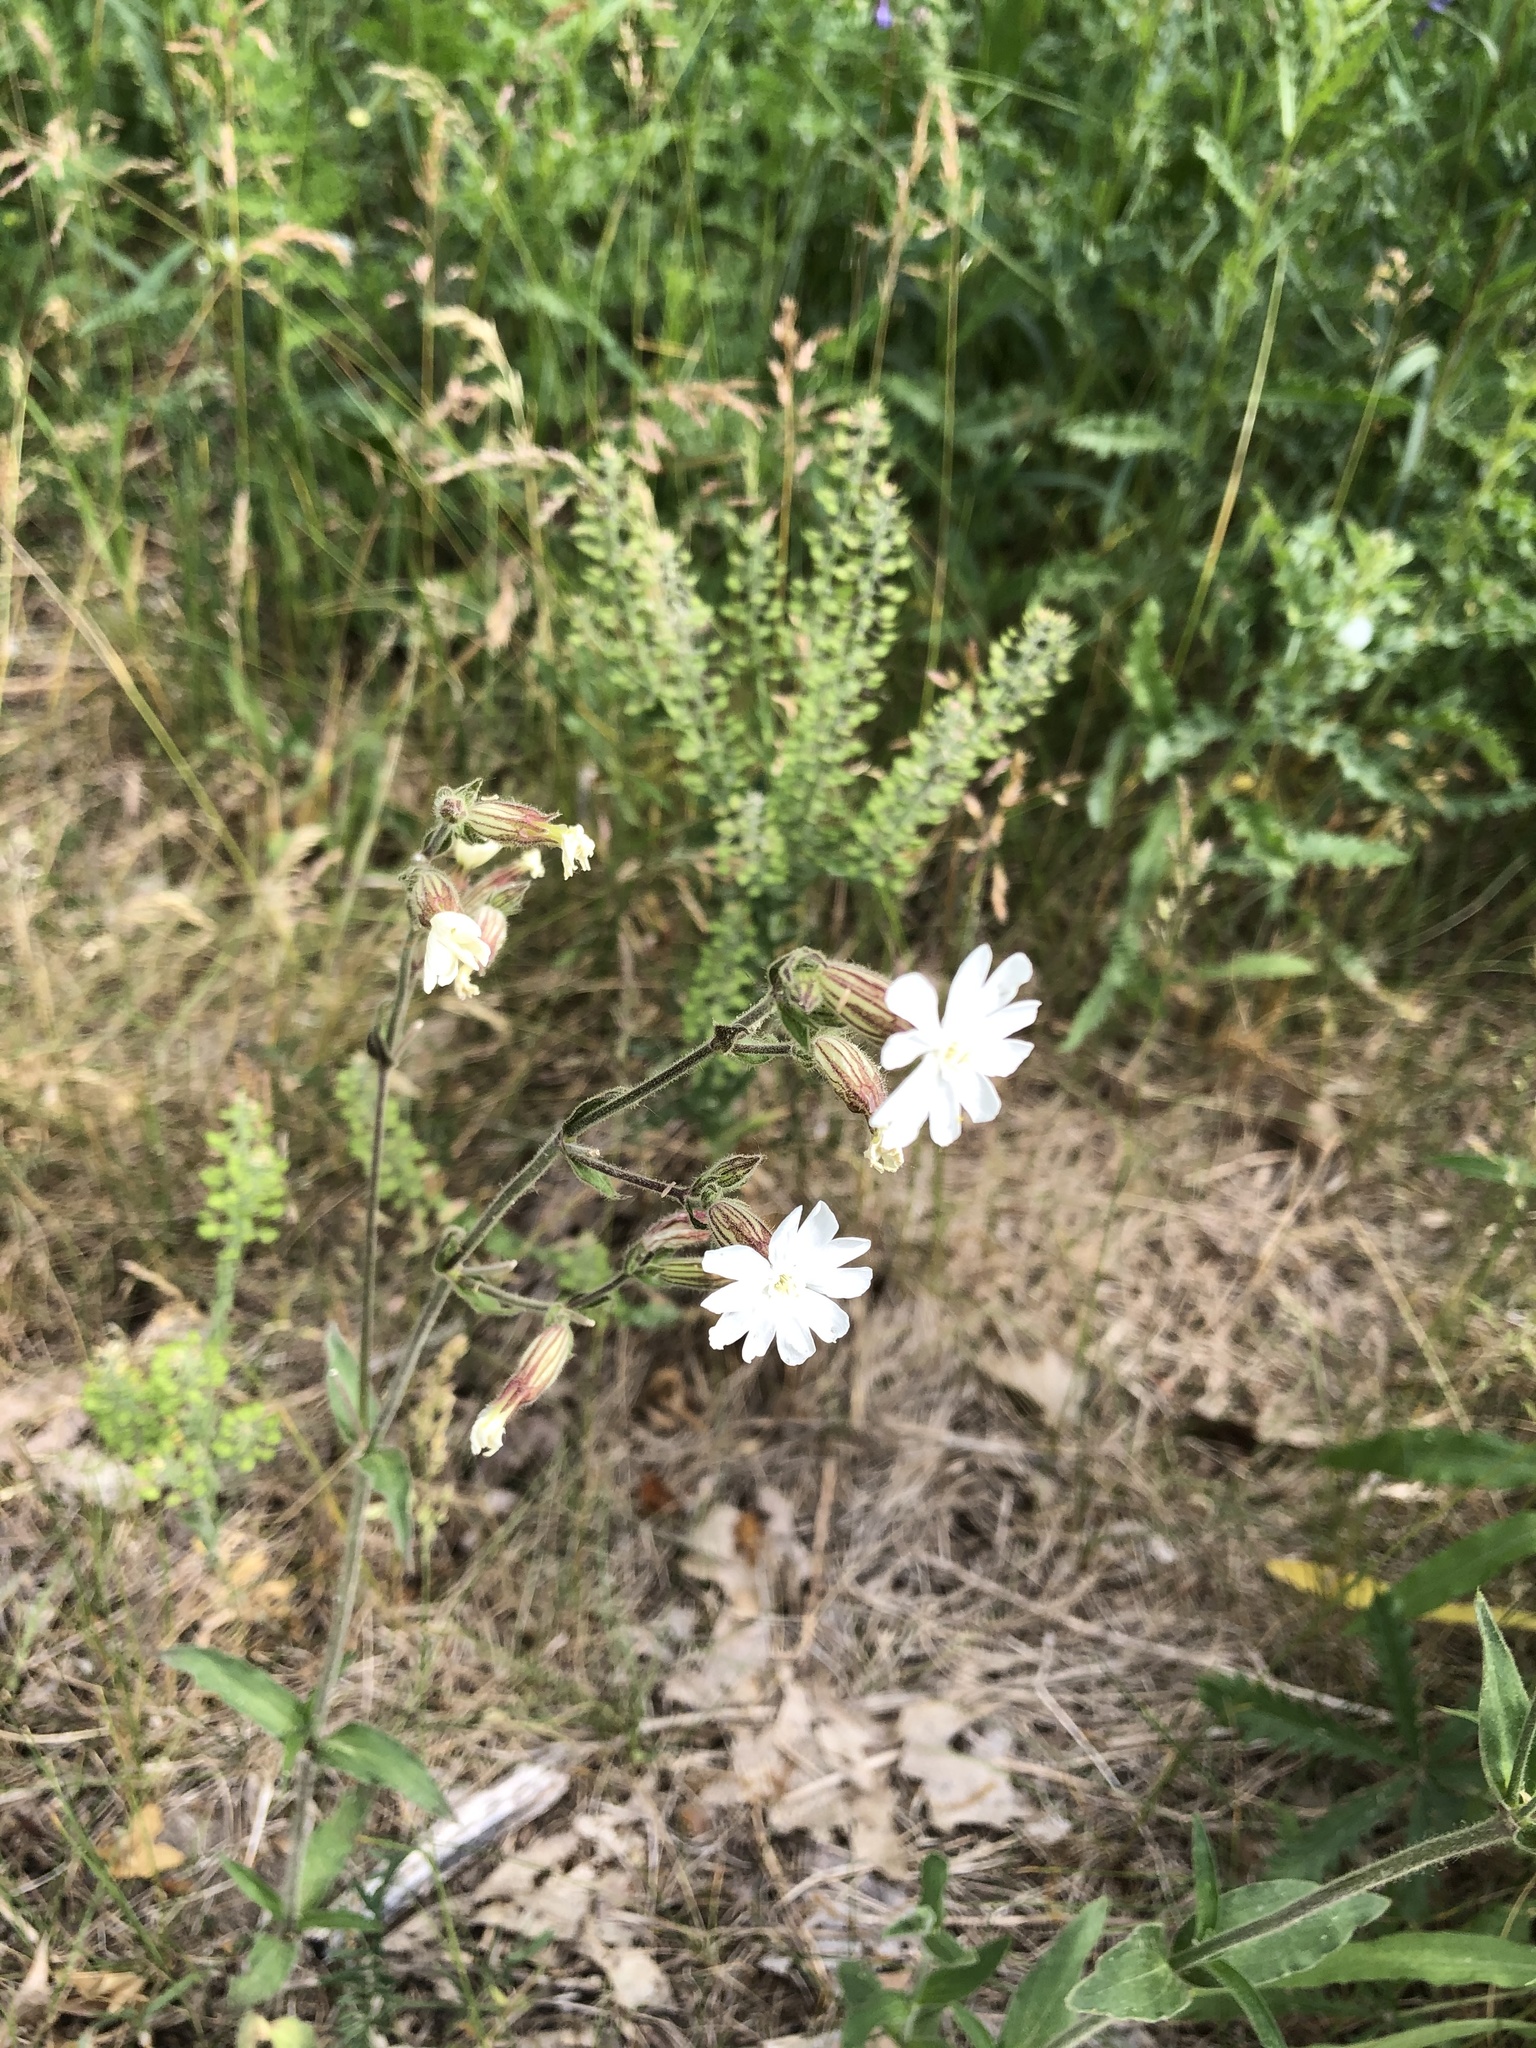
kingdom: Plantae
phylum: Tracheophyta
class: Magnoliopsida
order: Caryophyllales
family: Caryophyllaceae
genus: Silene
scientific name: Silene latifolia
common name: White campion
